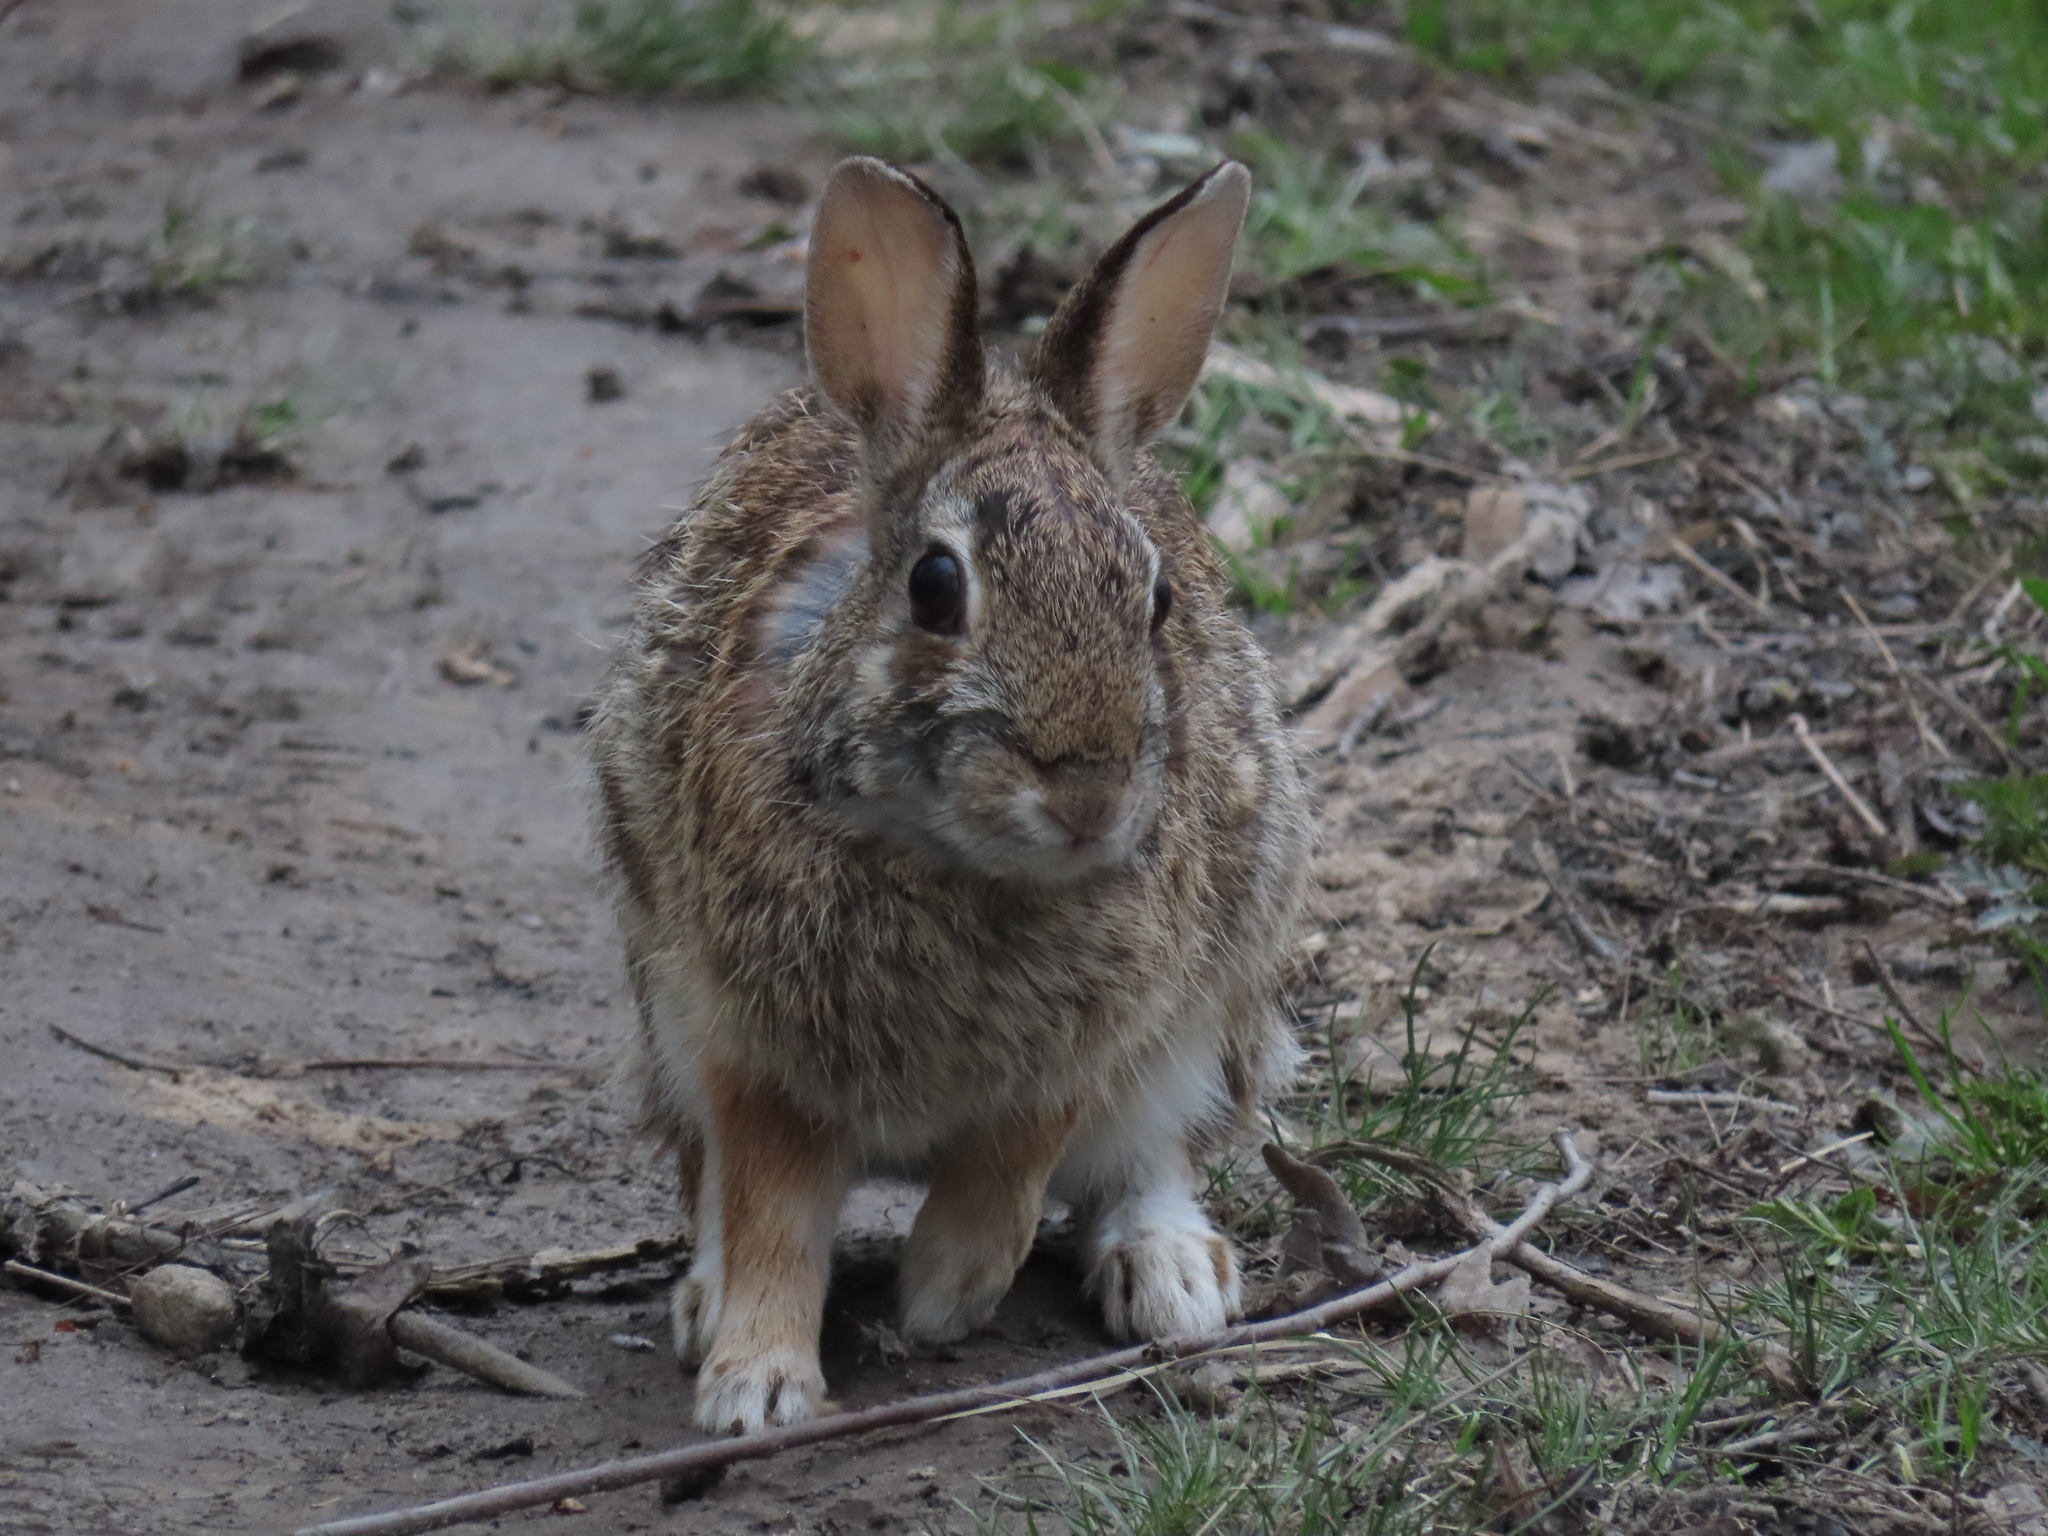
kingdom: Animalia
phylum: Chordata
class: Mammalia
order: Lagomorpha
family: Leporidae
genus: Sylvilagus
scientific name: Sylvilagus floridanus
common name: Eastern cottontail
